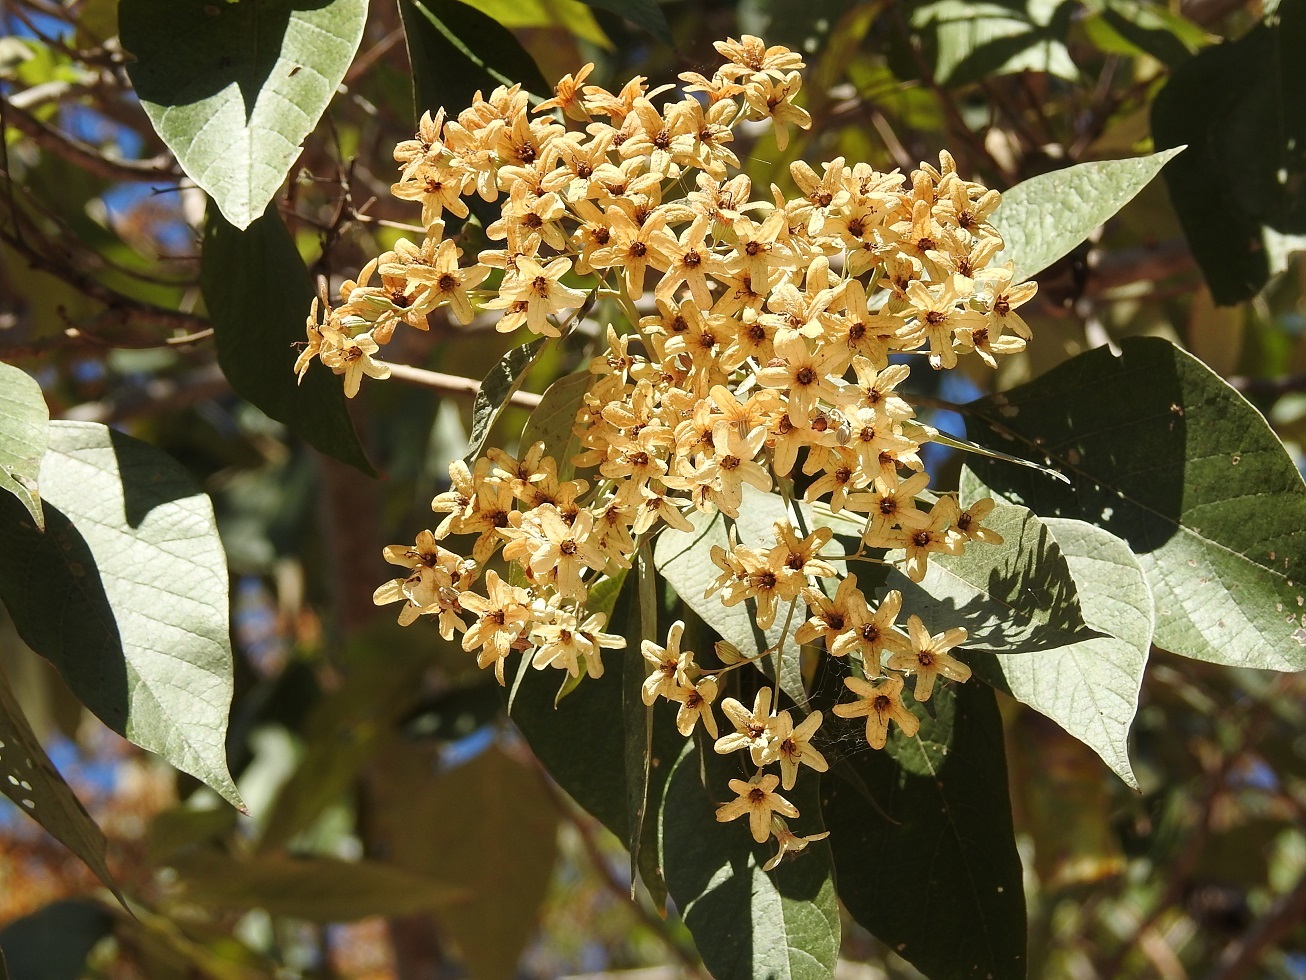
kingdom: Plantae
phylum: Tracheophyta
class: Magnoliopsida
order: Boraginales
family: Cordiaceae
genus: Cordia
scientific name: Cordia elaeagnoides
